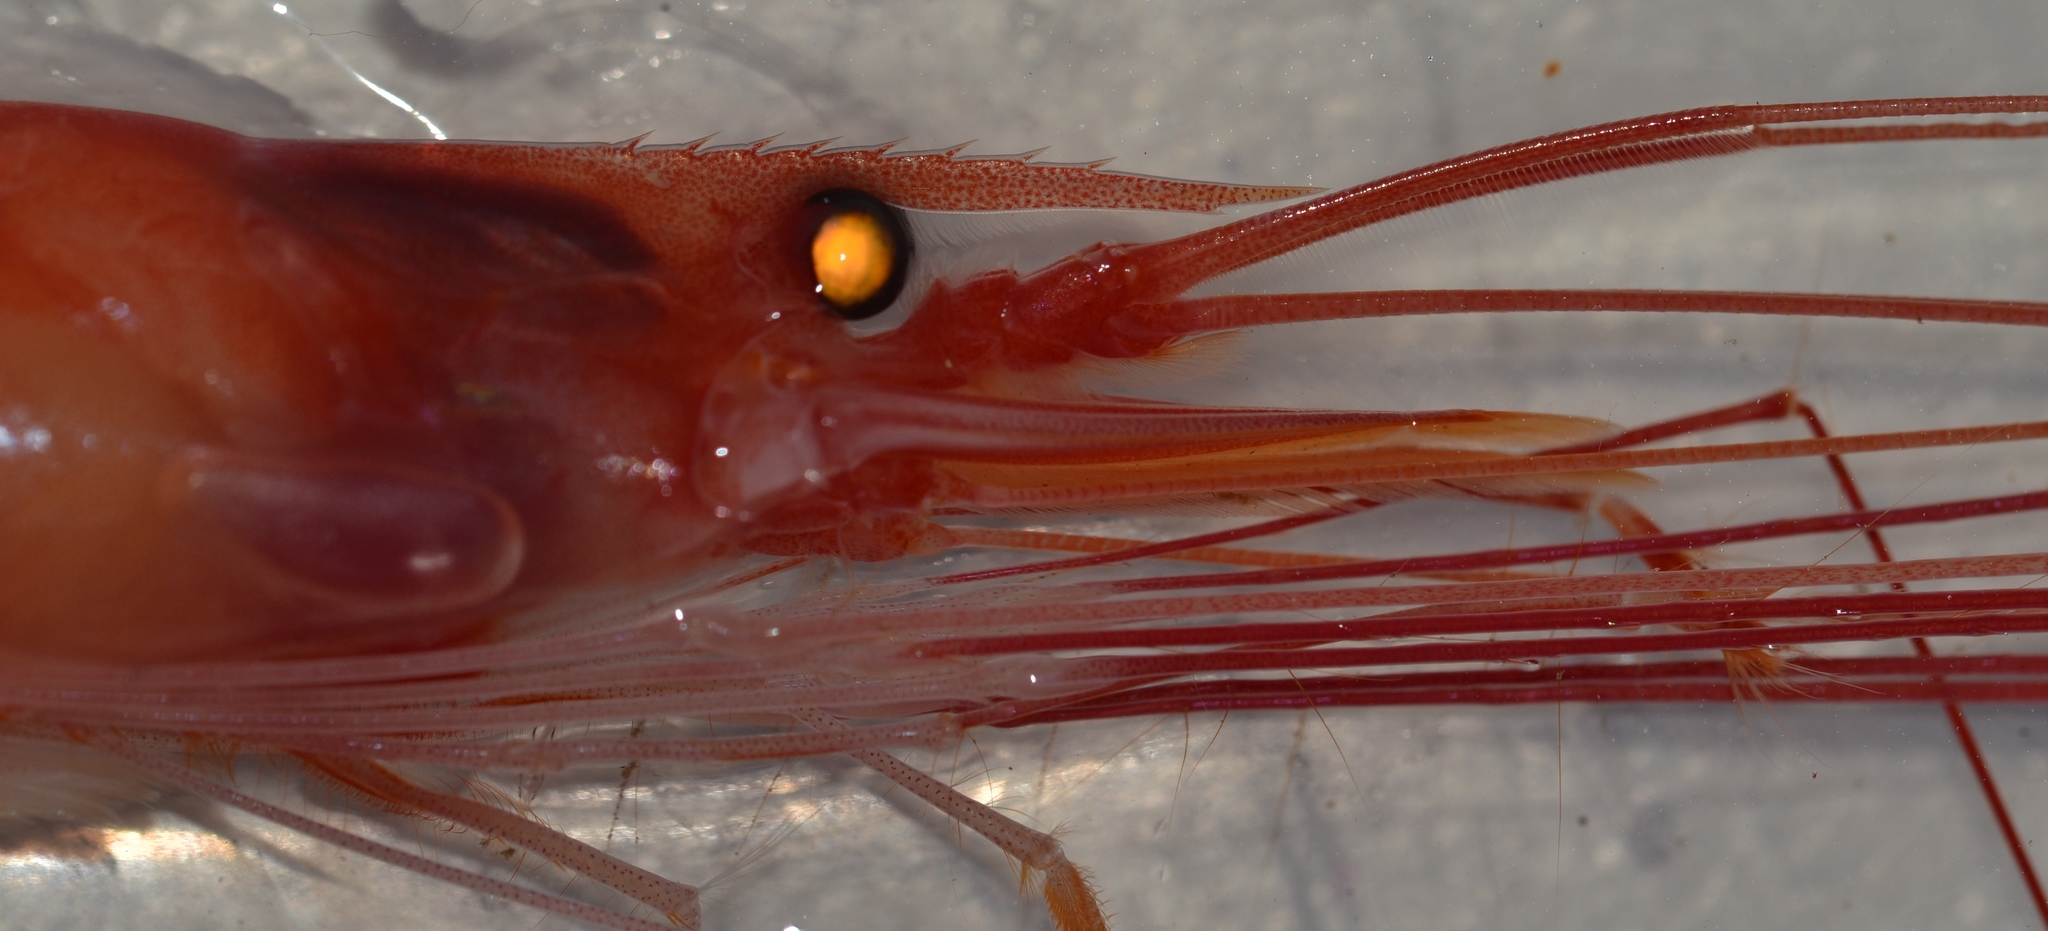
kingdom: Animalia
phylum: Arthropoda
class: Malacostraca
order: Decapoda
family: Nematocarcinidae
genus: Nematocarcinus
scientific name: Nematocarcinus tenuirostris
